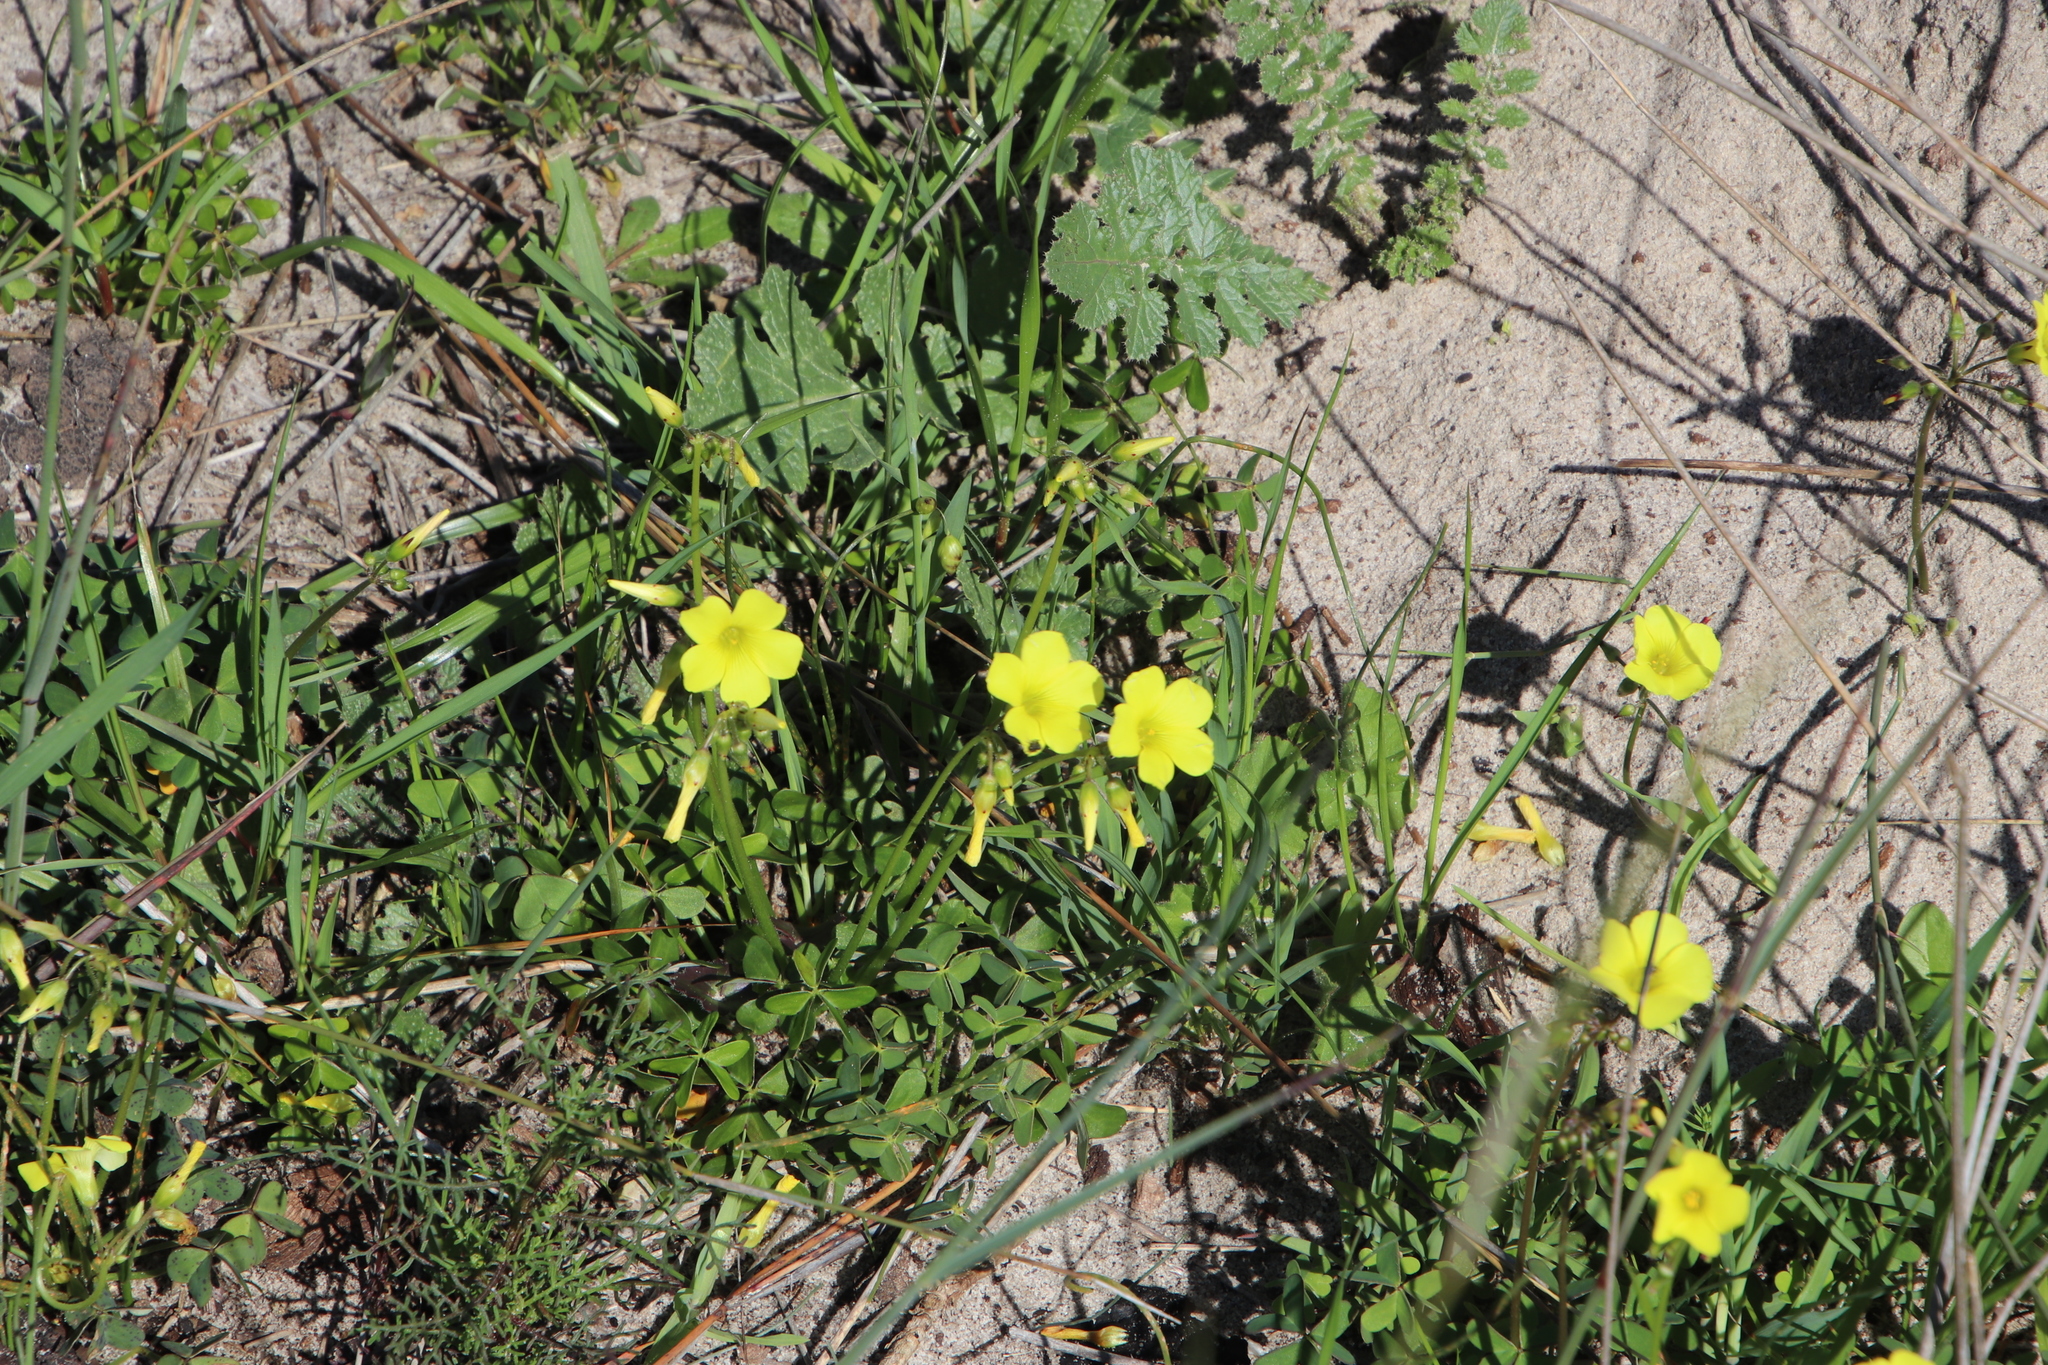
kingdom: Plantae
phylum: Tracheophyta
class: Magnoliopsida
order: Oxalidales
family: Oxalidaceae
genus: Oxalis
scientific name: Oxalis pes-caprae
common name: Bermuda-buttercup
